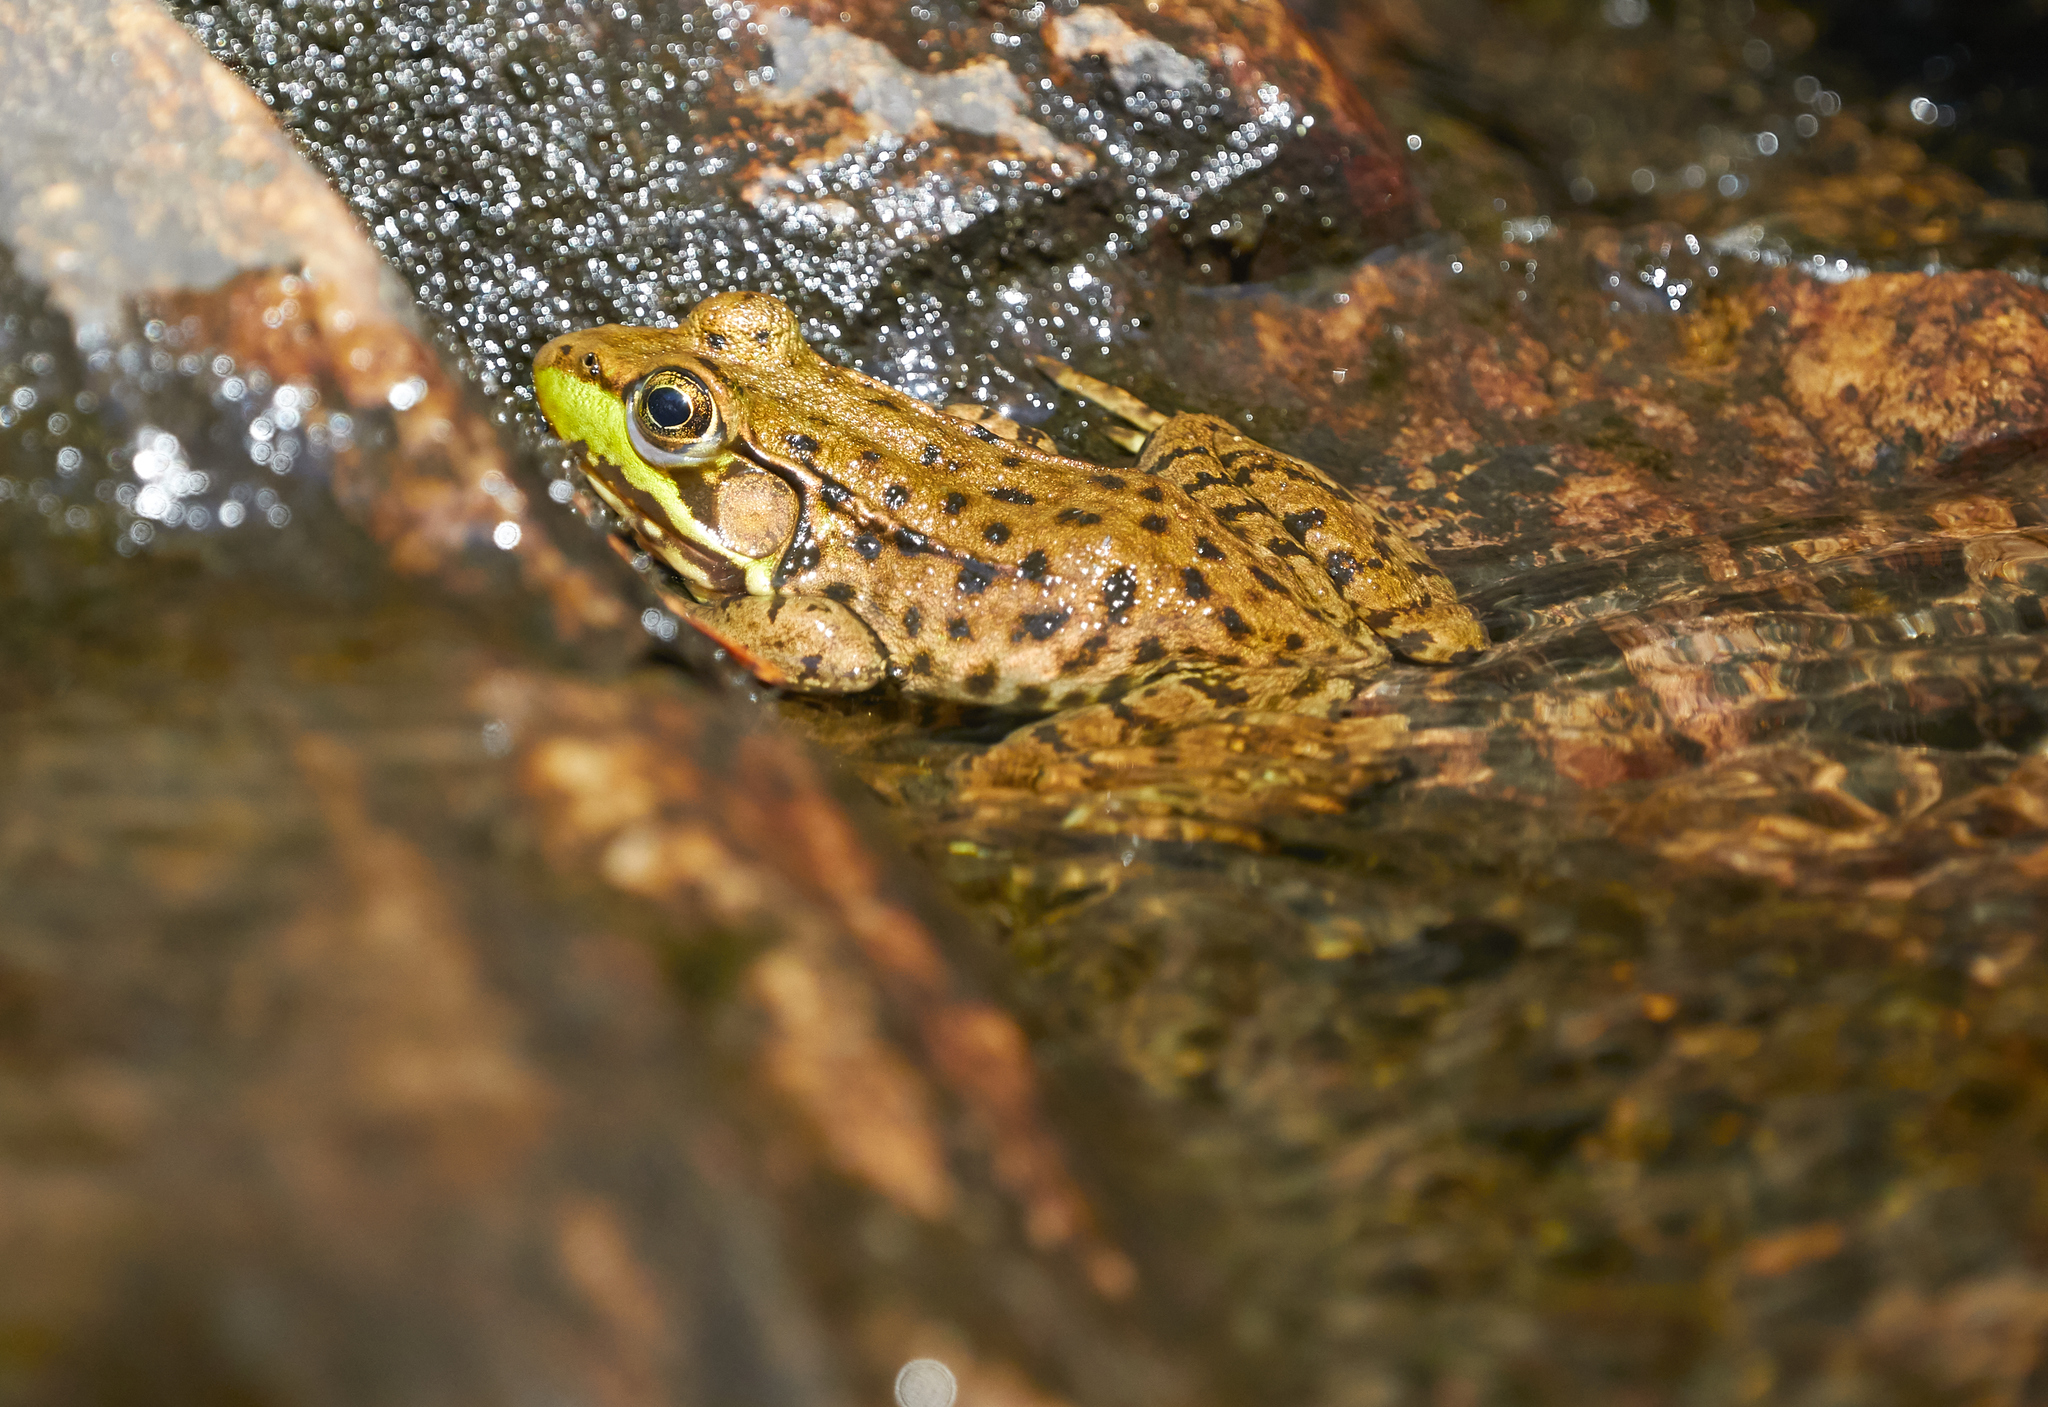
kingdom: Animalia
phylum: Chordata
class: Amphibia
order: Anura
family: Ranidae
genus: Lithobates
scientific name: Lithobates clamitans
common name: Green frog
